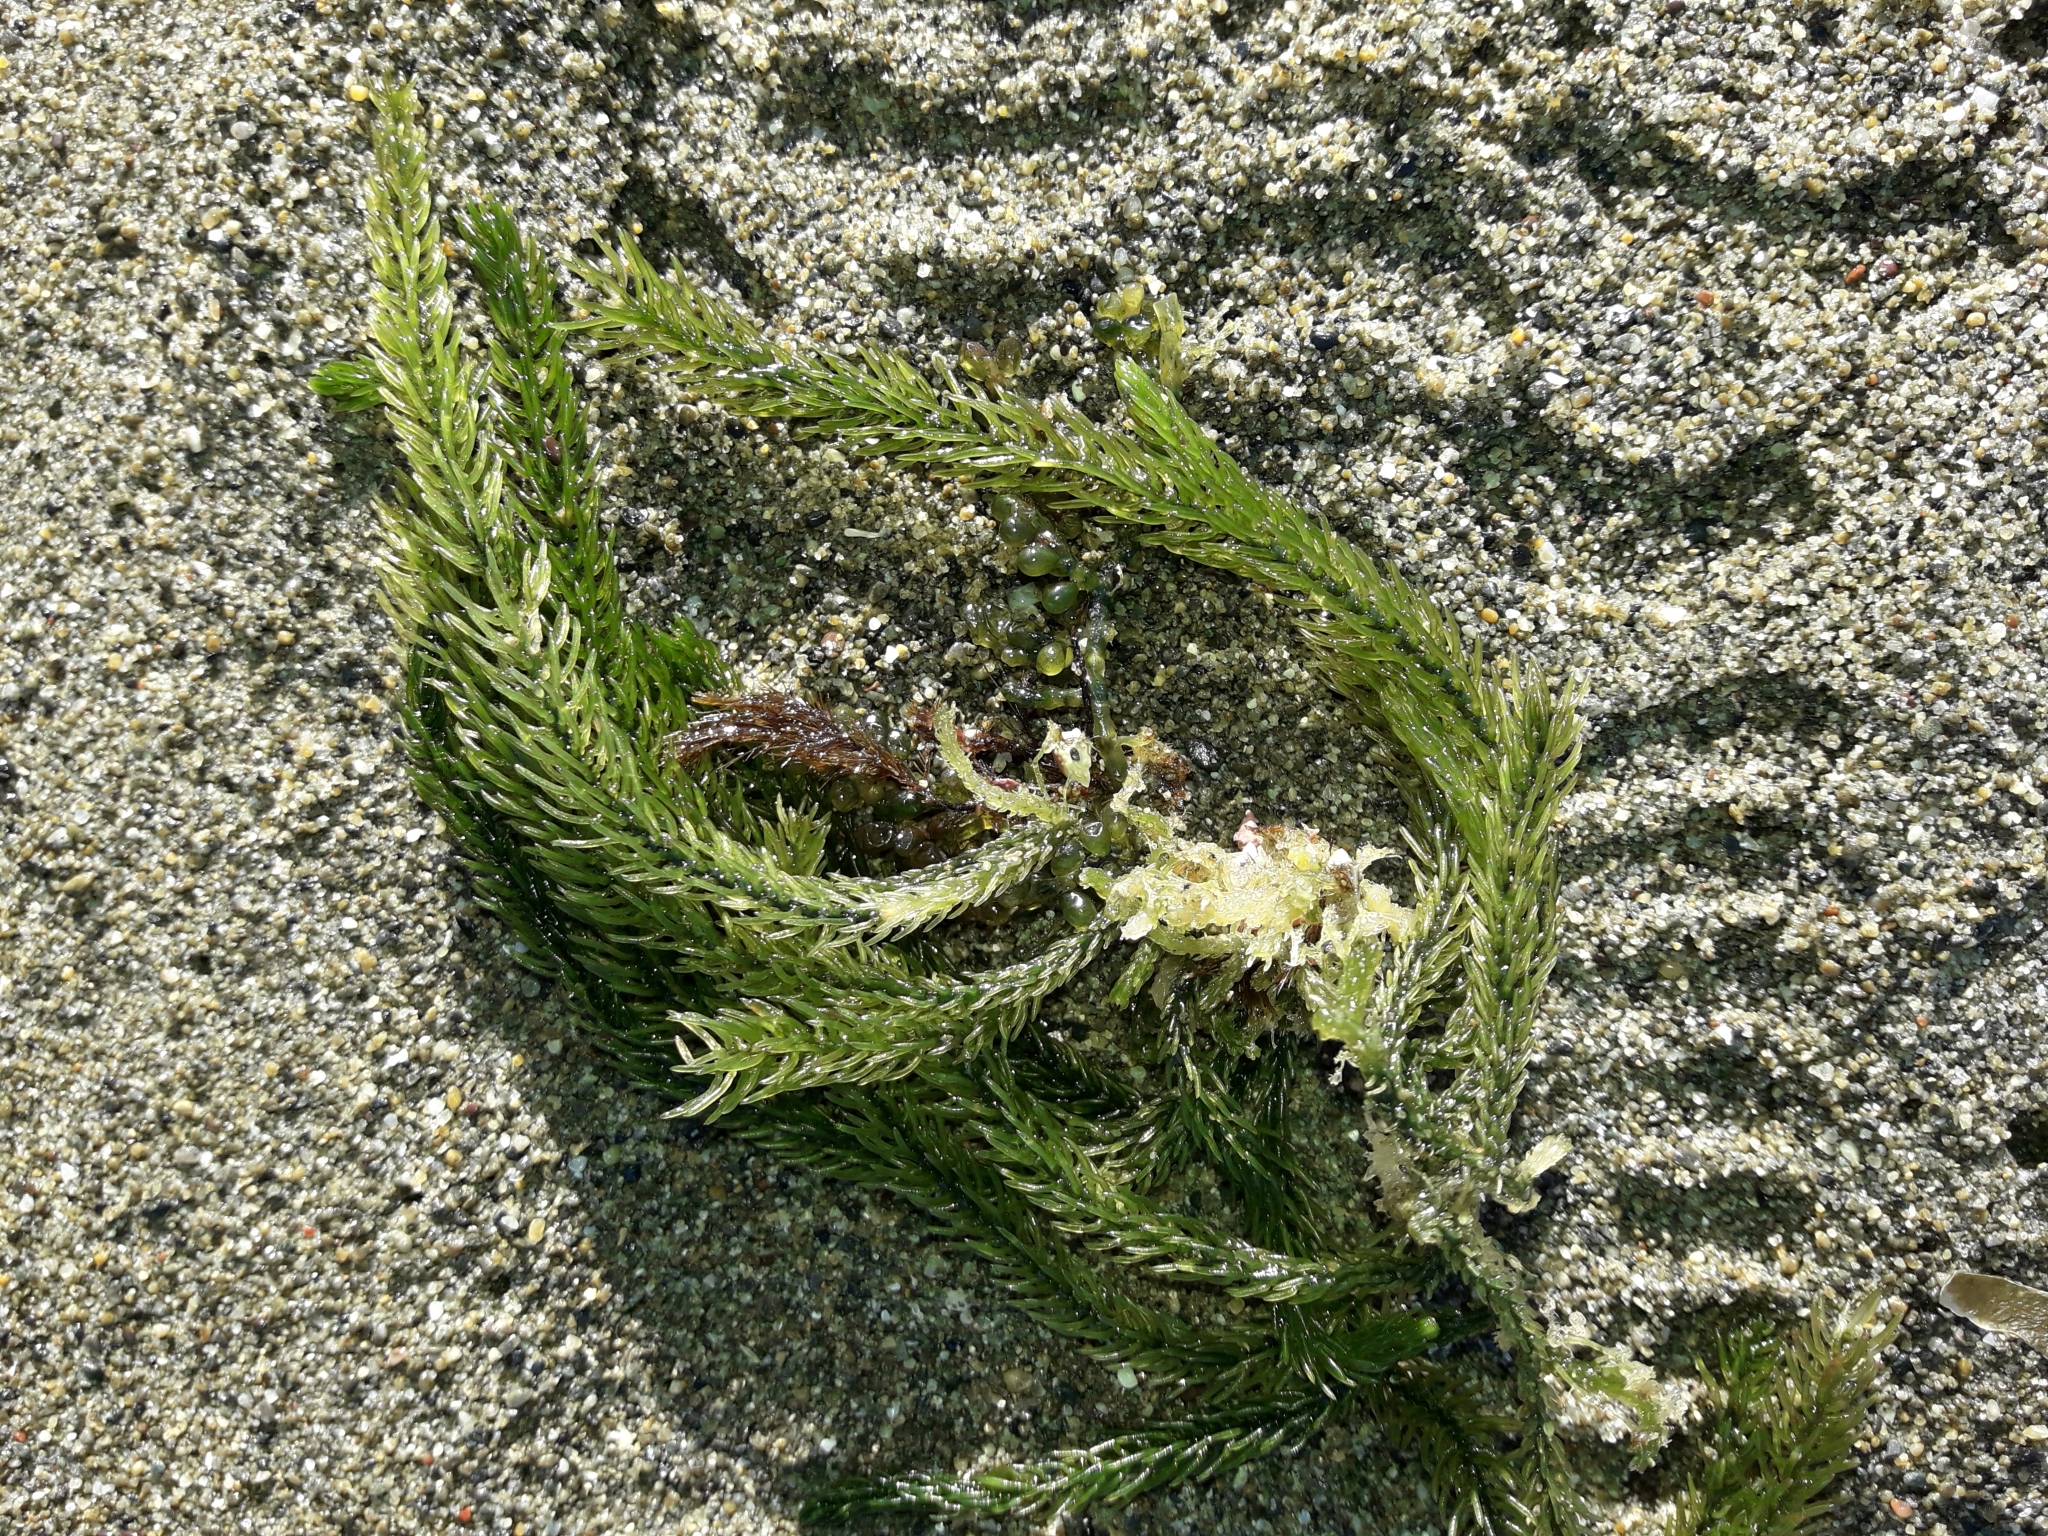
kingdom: Plantae
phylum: Chlorophyta
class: Ulvophyceae
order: Bryopsidales
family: Caulerpaceae
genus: Caulerpa
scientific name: Caulerpa brownii
